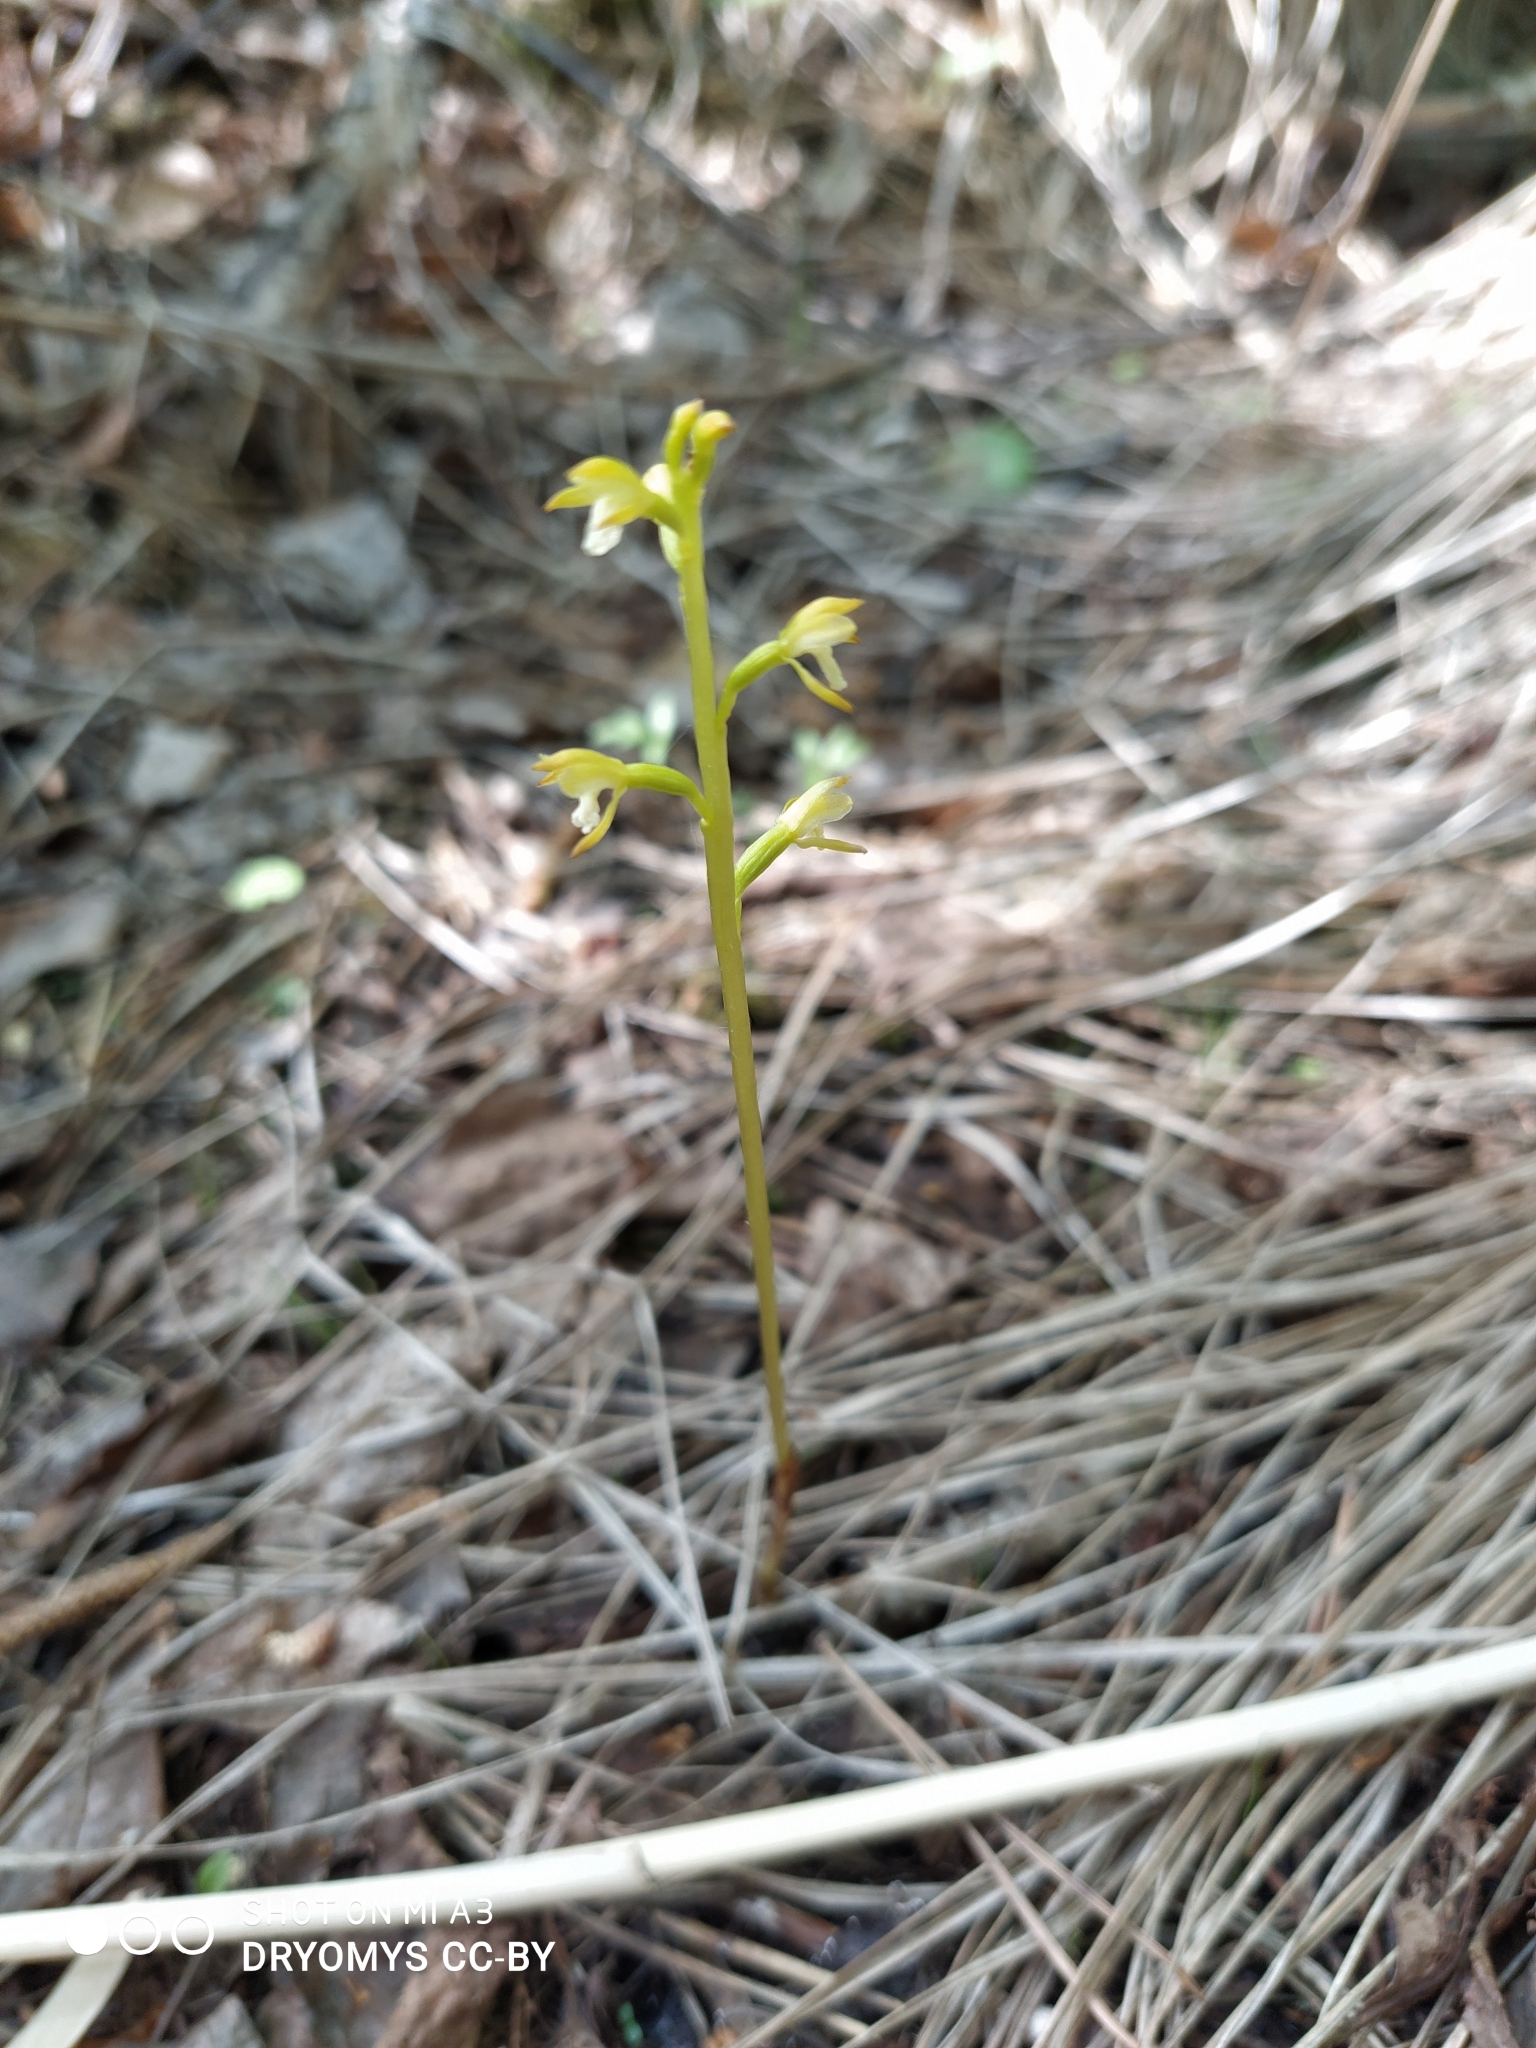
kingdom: Plantae
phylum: Tracheophyta
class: Liliopsida
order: Asparagales
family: Orchidaceae
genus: Corallorhiza
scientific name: Corallorhiza trifida
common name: Yellow coralroot
